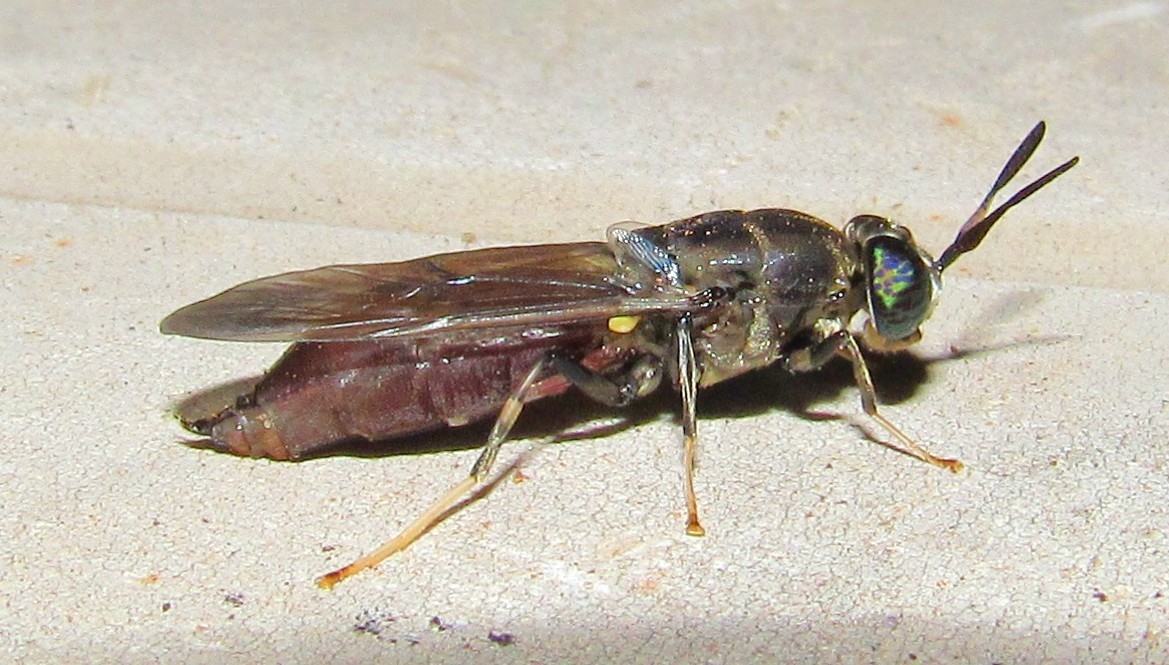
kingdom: Animalia
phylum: Arthropoda
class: Insecta
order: Diptera
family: Stratiomyidae
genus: Hermetia
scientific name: Hermetia illucens
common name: Black soldier fly
